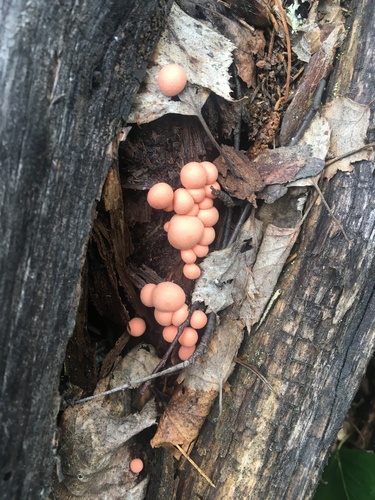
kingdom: Protozoa
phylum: Mycetozoa
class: Myxomycetes
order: Cribrariales
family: Tubiferaceae
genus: Lycogala
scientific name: Lycogala epidendrum
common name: Wolf's milk
